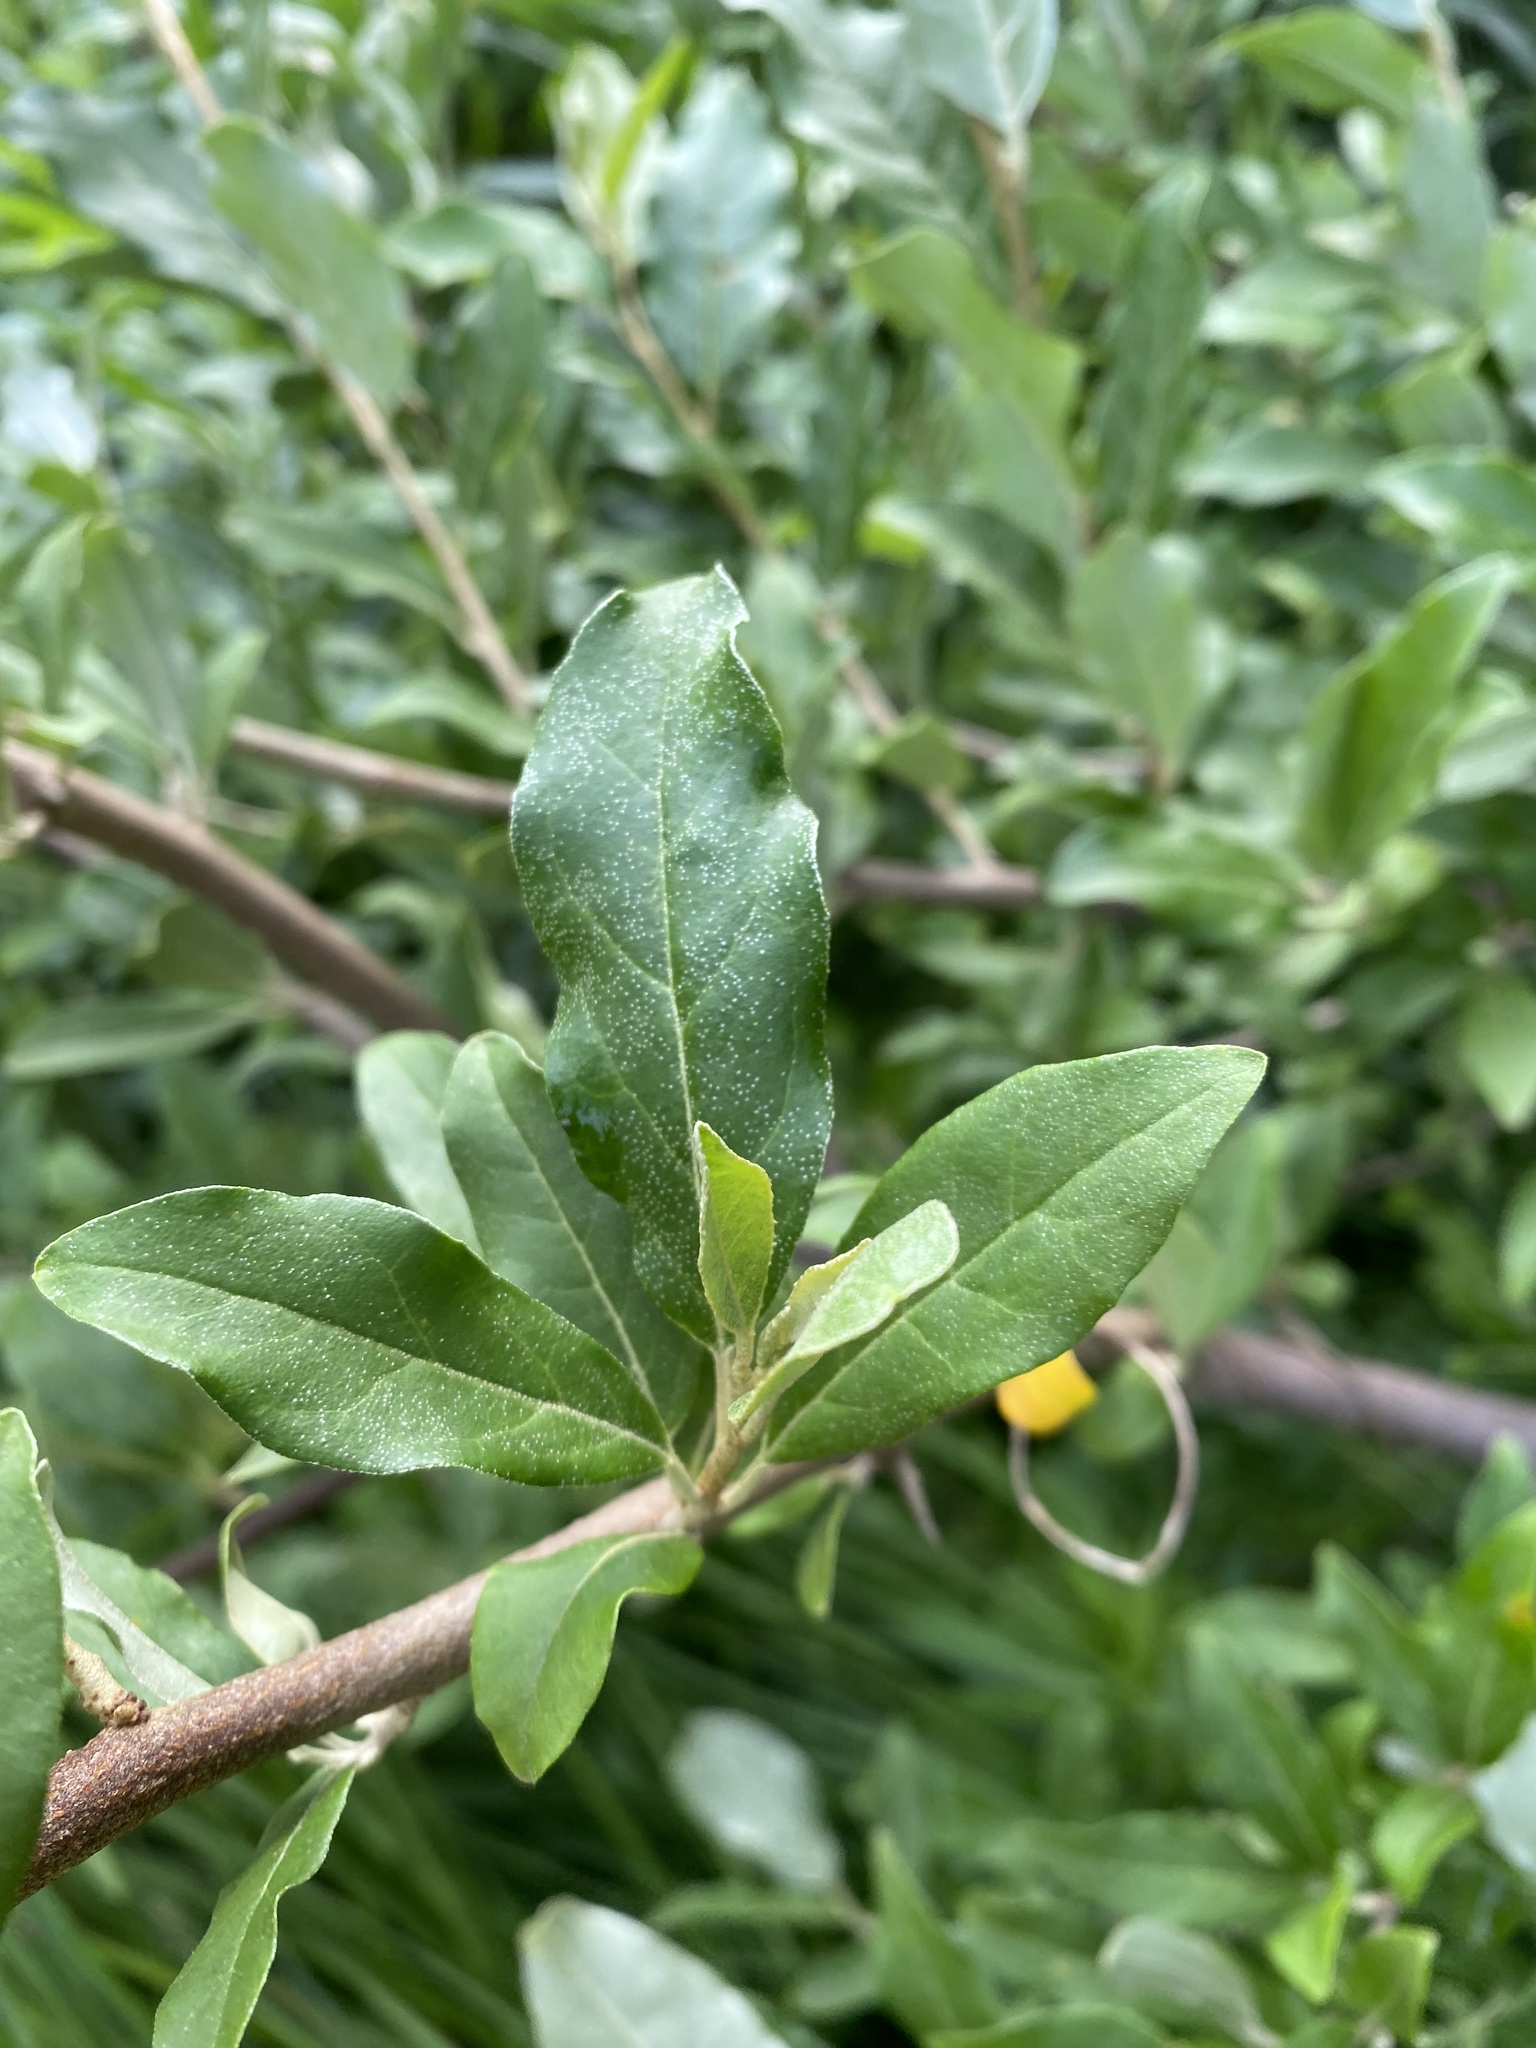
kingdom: Plantae
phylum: Tracheophyta
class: Magnoliopsida
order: Rosales
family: Elaeagnaceae
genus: Elaeagnus
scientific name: Elaeagnus umbellata
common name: Autumn olive
